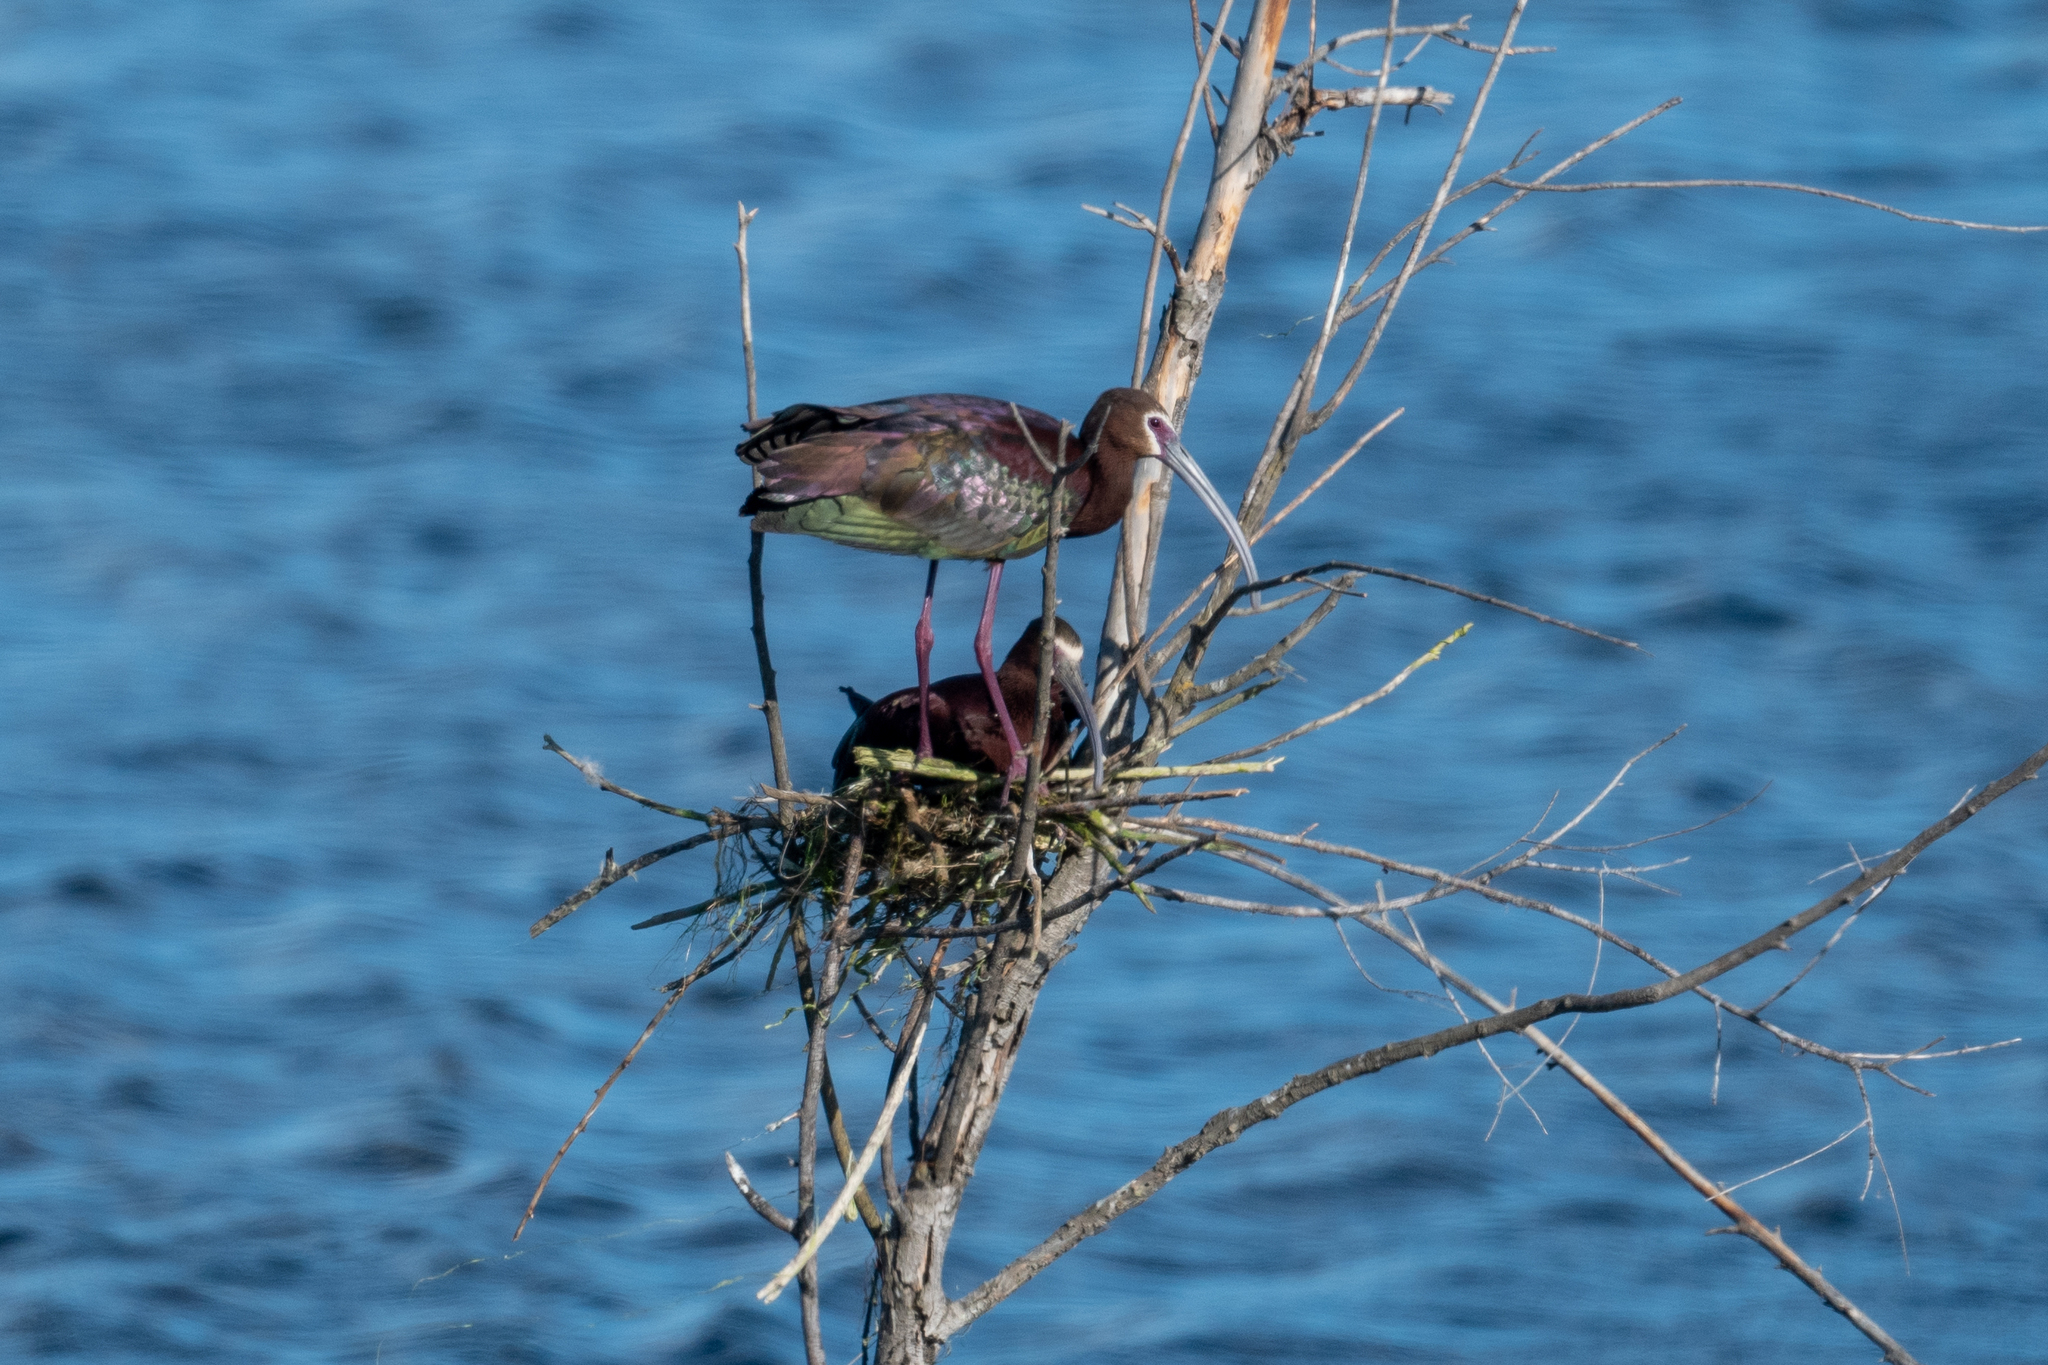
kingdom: Animalia
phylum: Chordata
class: Aves
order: Pelecaniformes
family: Threskiornithidae
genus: Plegadis
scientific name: Plegadis chihi
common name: White-faced ibis
